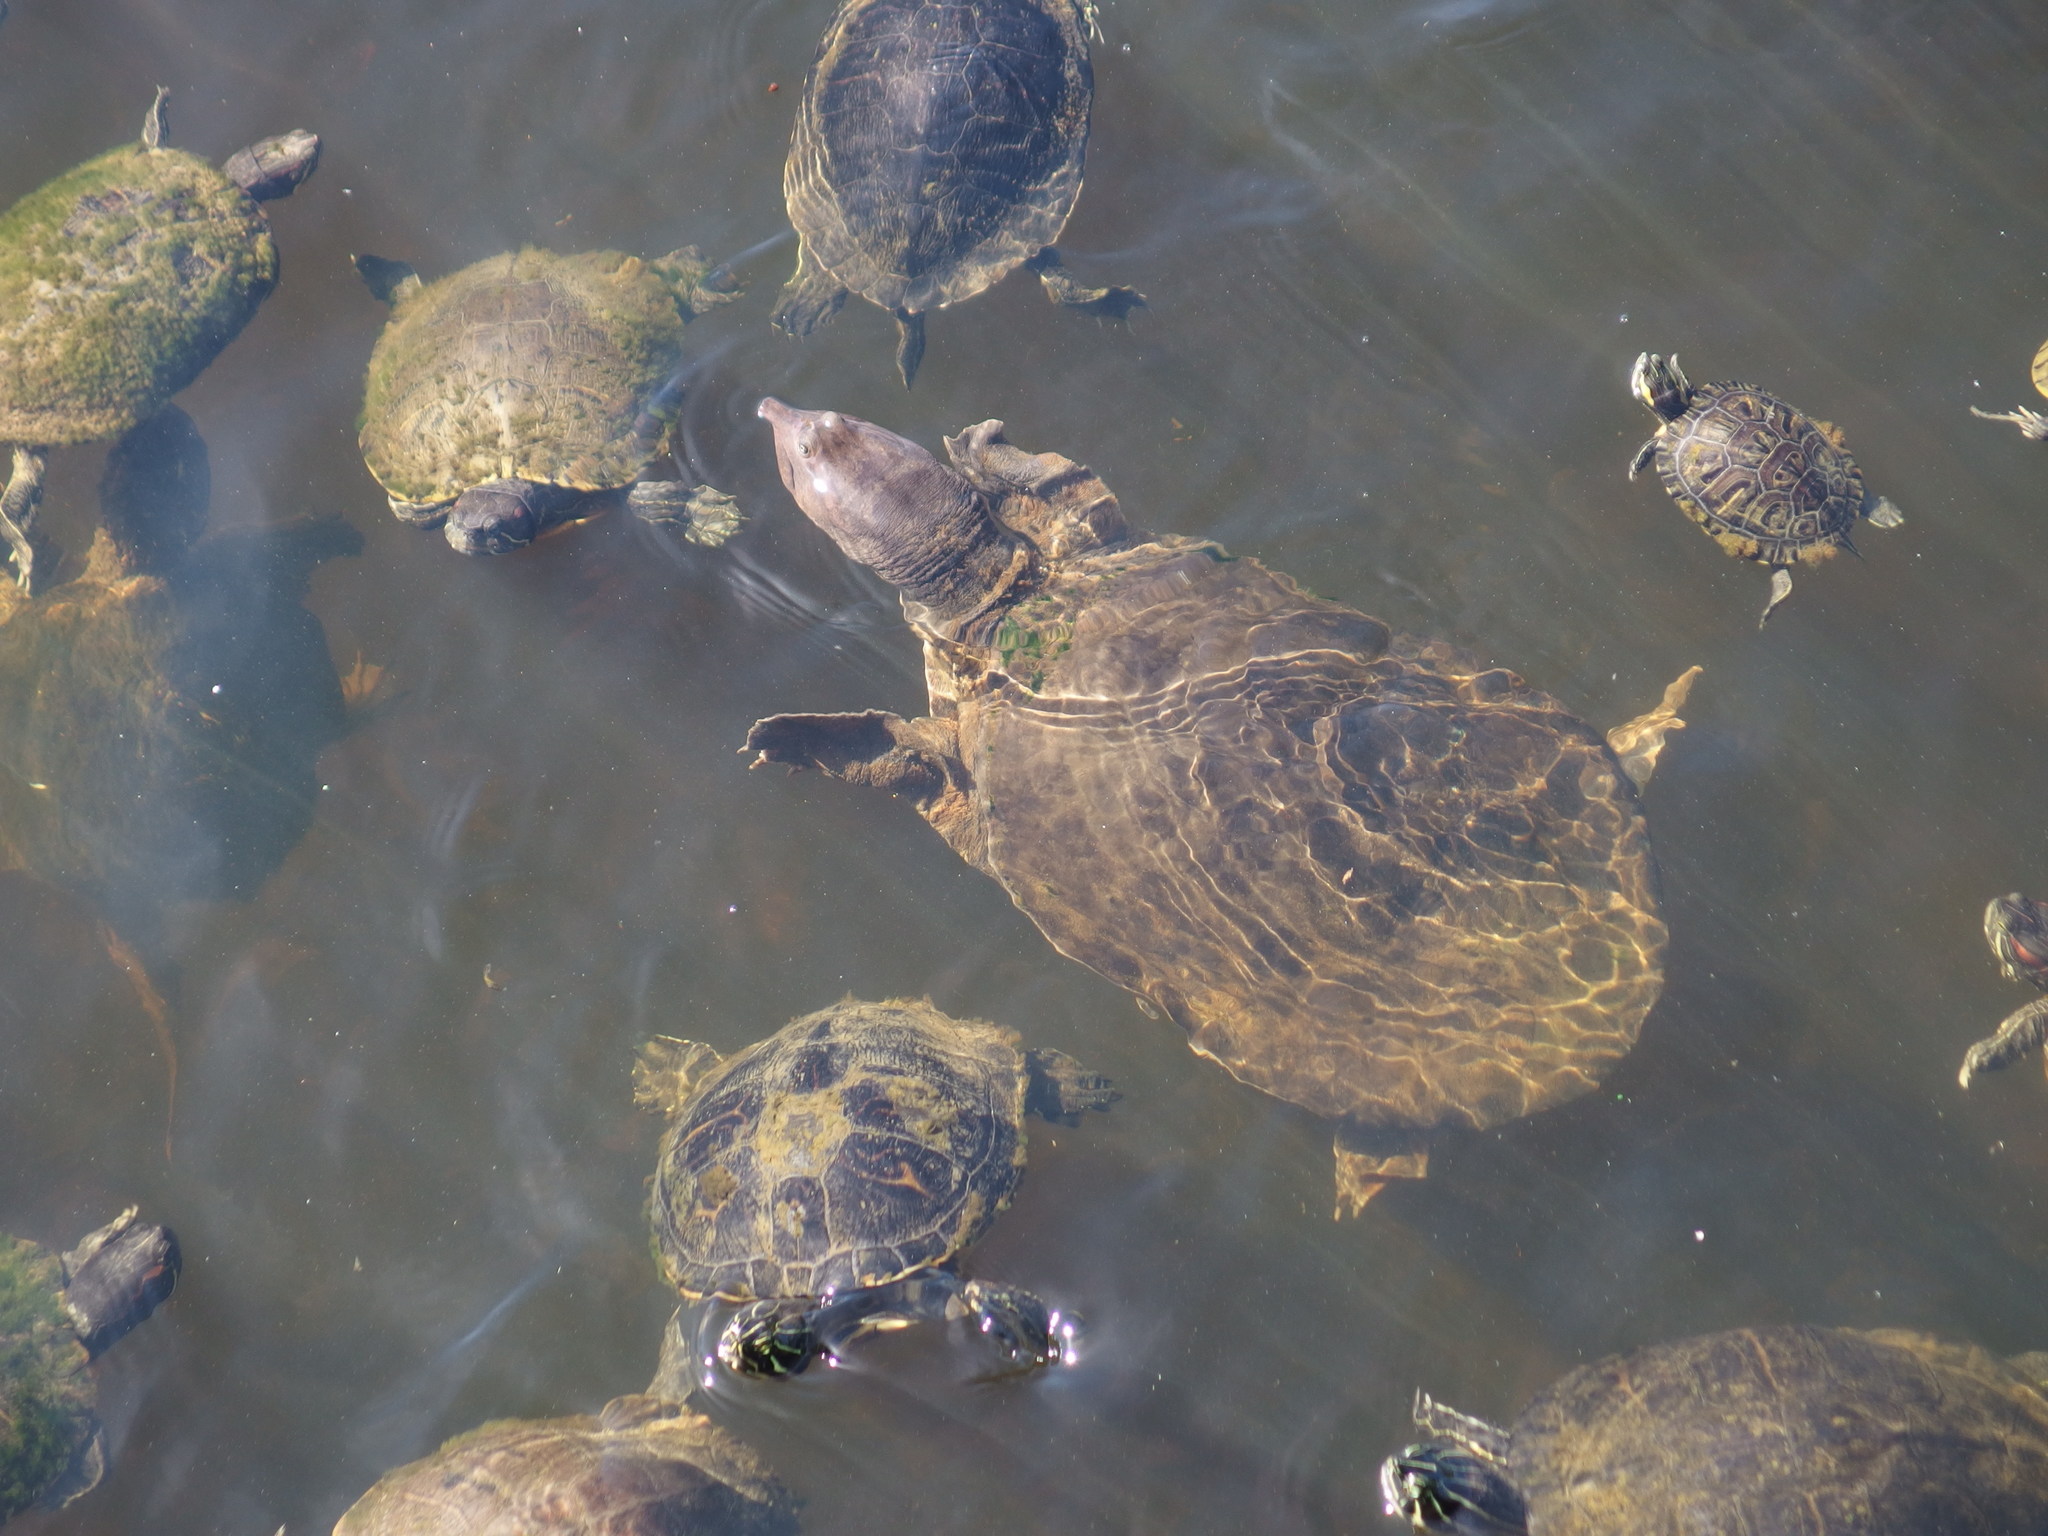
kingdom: Animalia
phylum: Chordata
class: Testudines
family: Trionychidae
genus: Apalone
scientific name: Apalone ferox
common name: Florida softshell turtle
